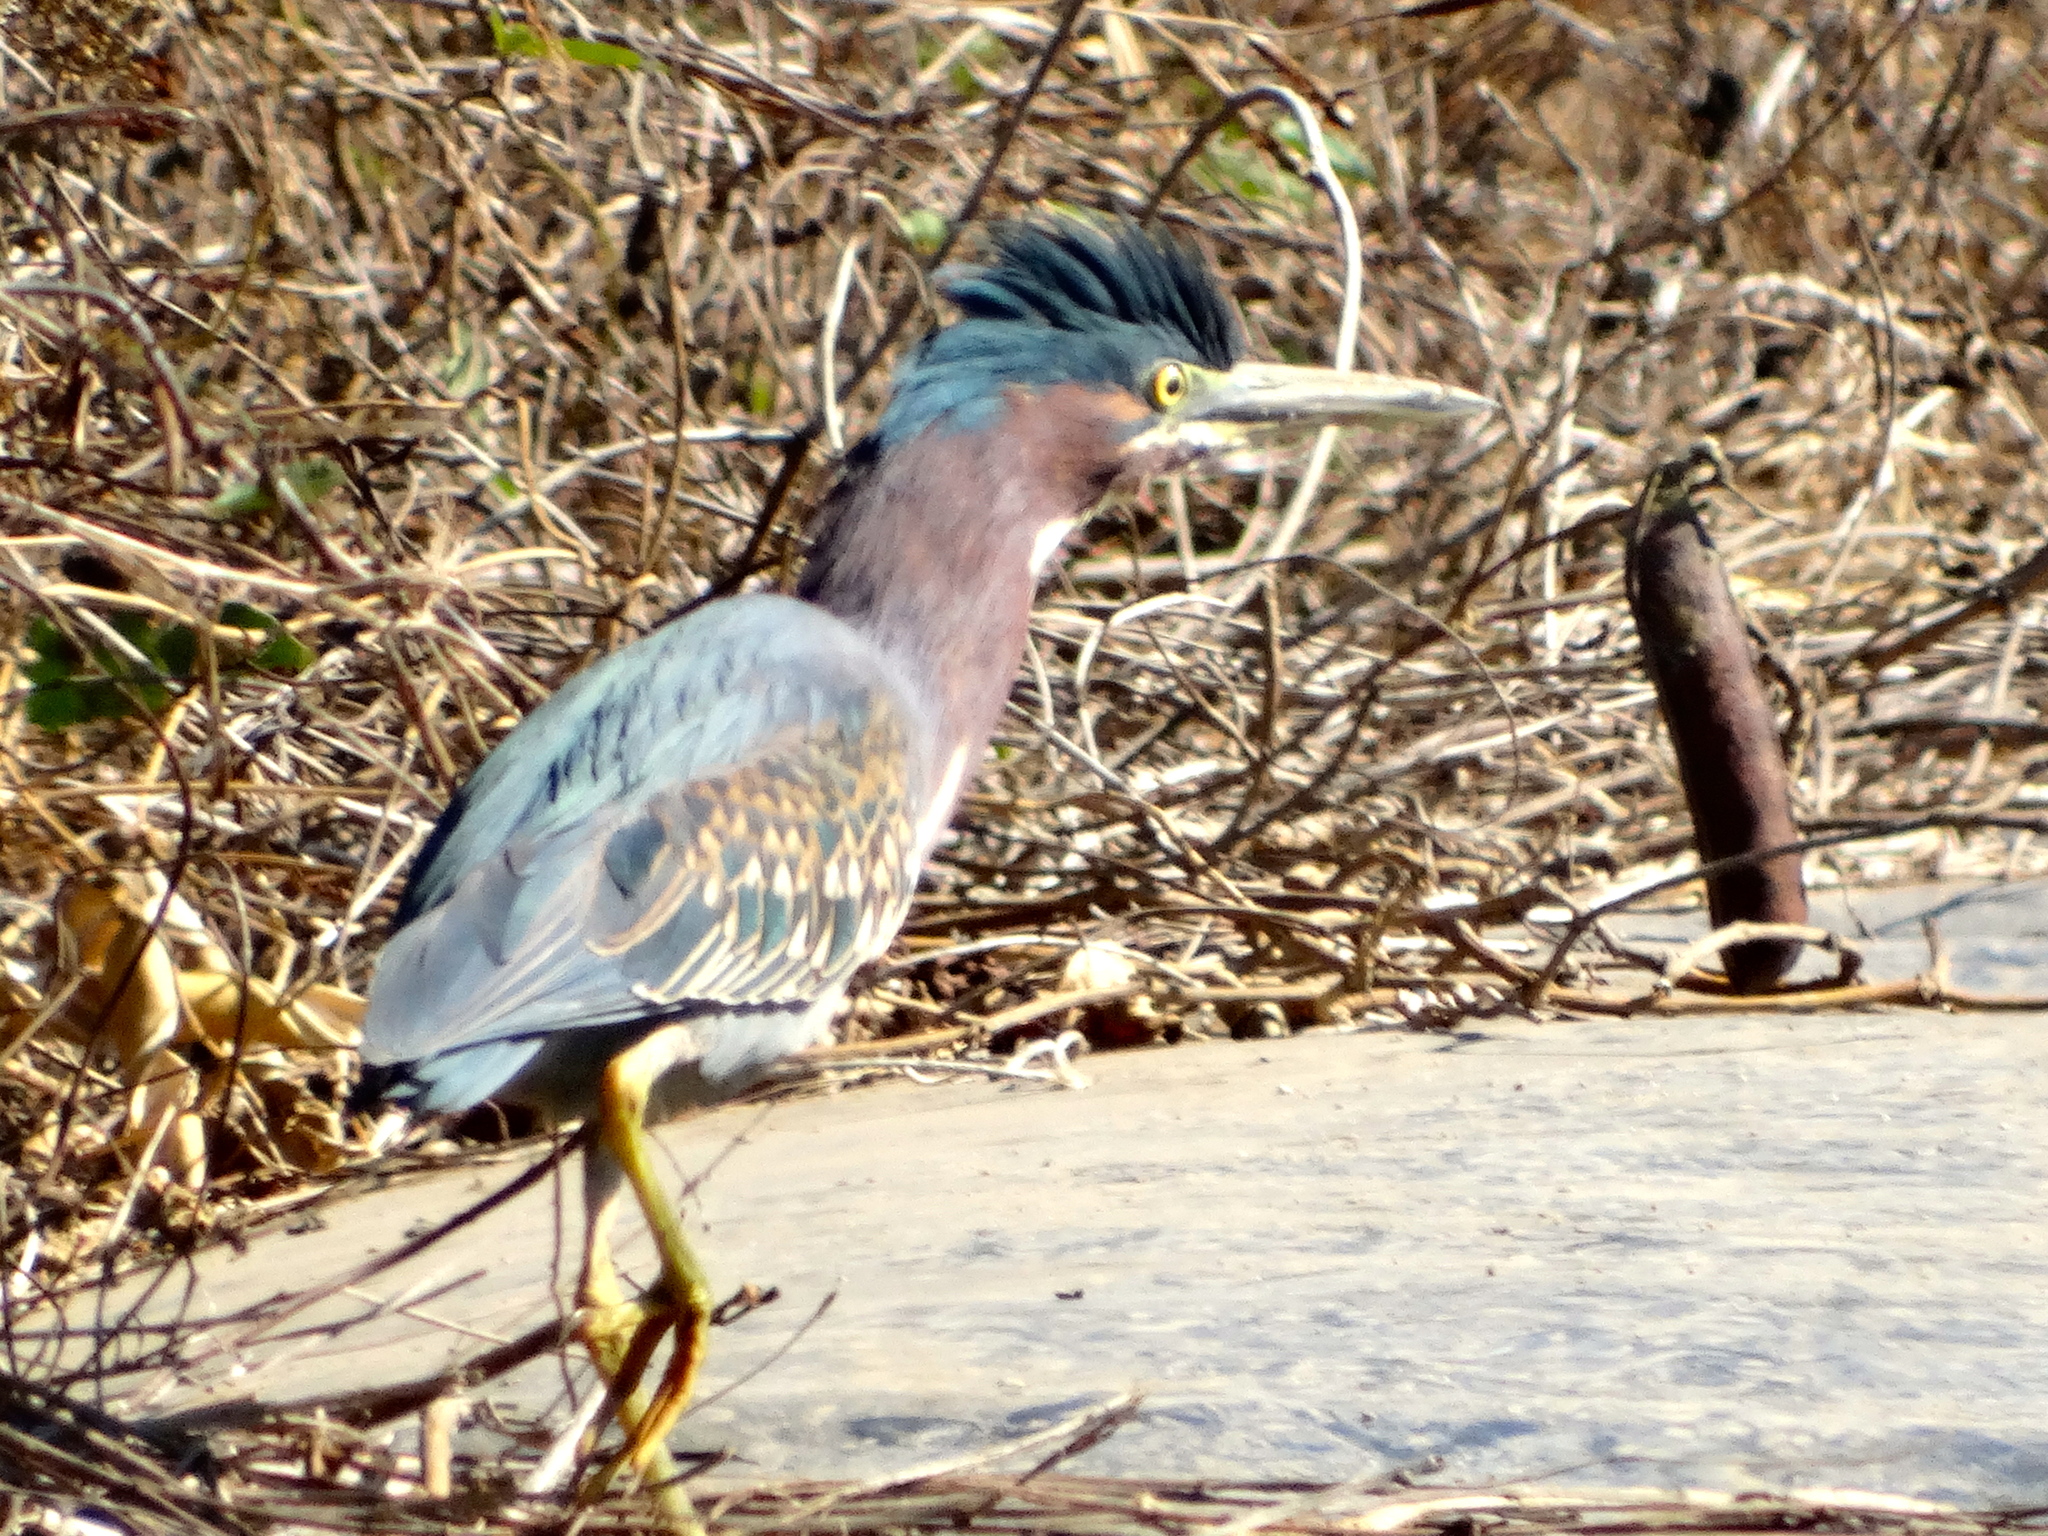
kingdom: Animalia
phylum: Chordata
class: Aves
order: Pelecaniformes
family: Ardeidae
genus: Butorides
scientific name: Butorides virescens
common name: Green heron
